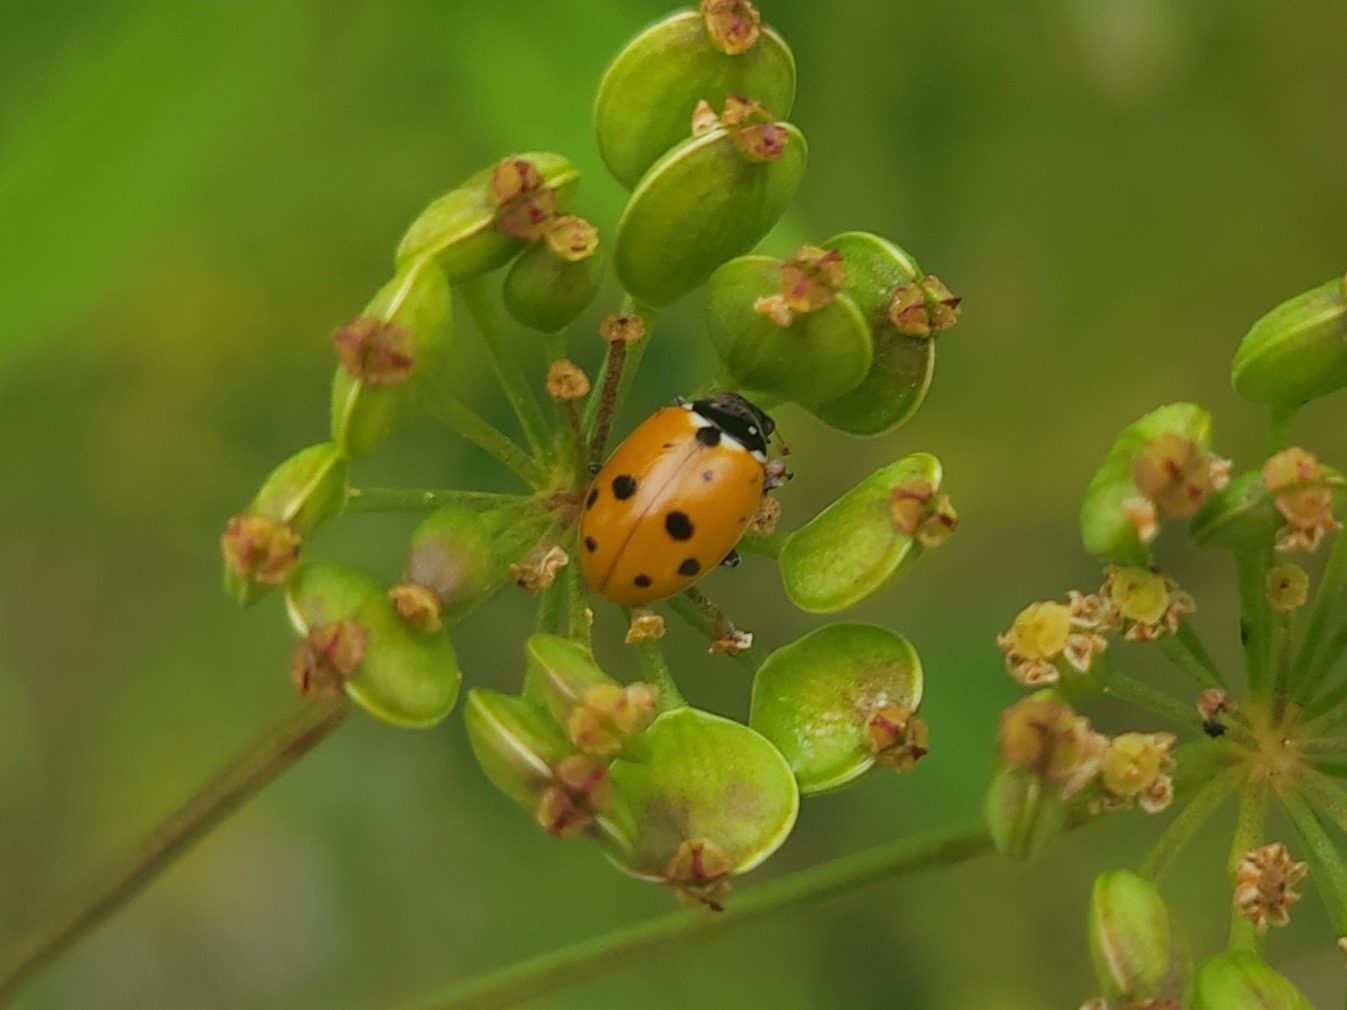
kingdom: Animalia
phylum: Arthropoda
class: Insecta
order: Coleoptera
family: Coccinellidae
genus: Hippodamia
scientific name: Hippodamia variegata
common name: Ladybird beetle
